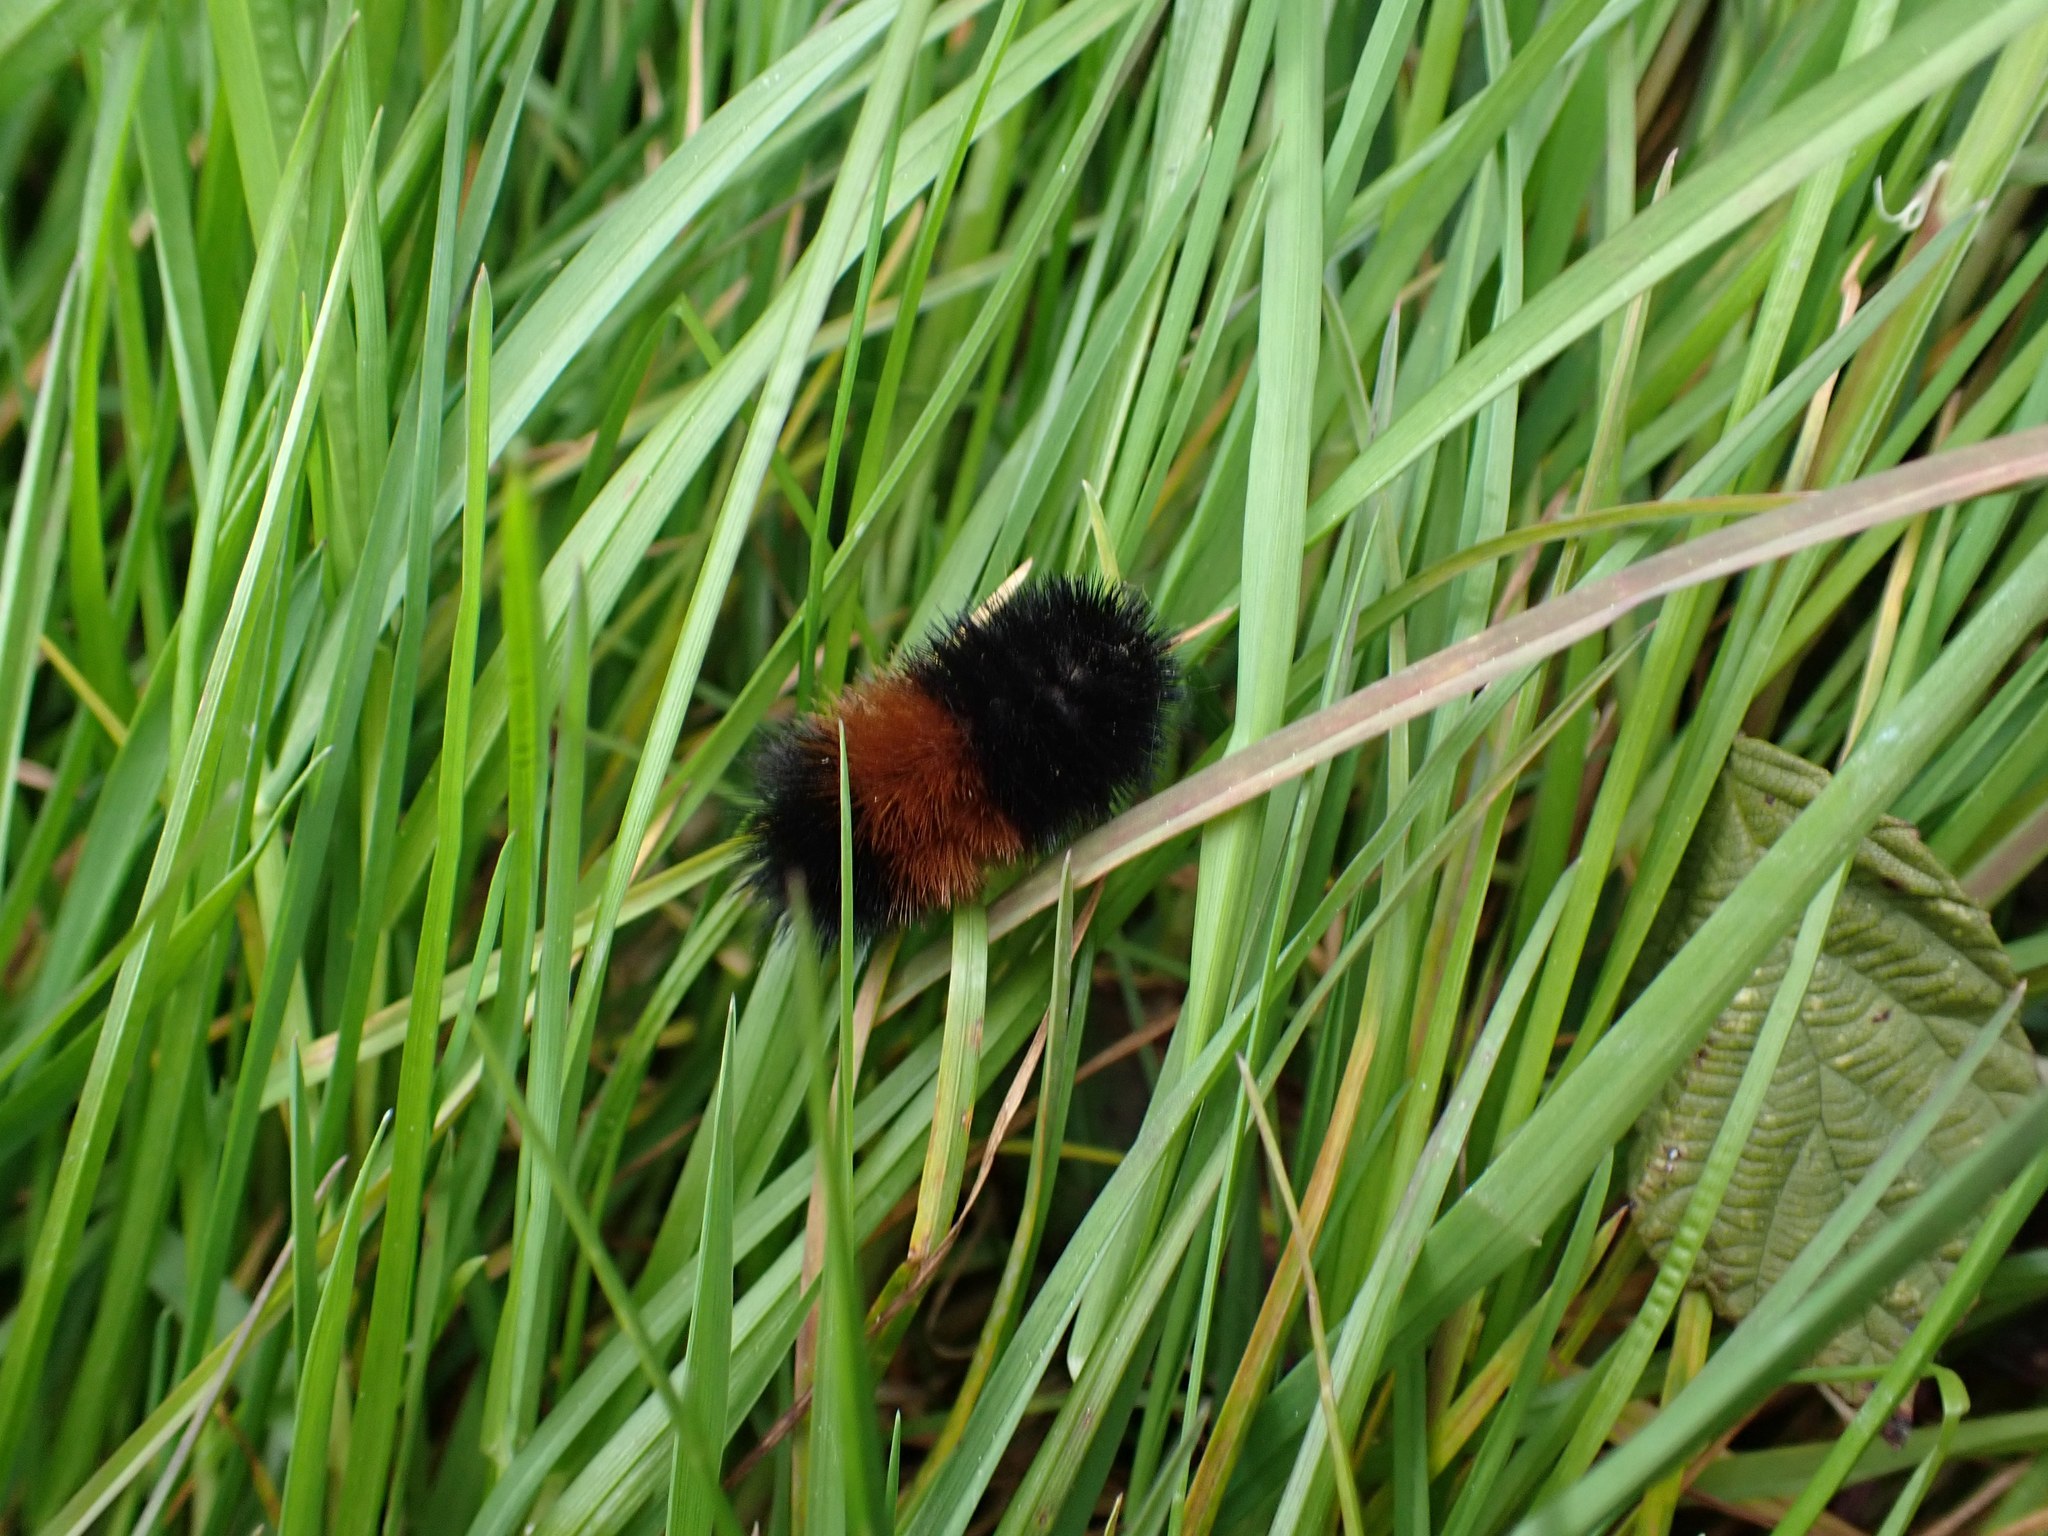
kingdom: Animalia
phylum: Arthropoda
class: Insecta
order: Lepidoptera
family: Erebidae
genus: Pyrrharctia
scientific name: Pyrrharctia isabella
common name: Isabella tiger moth
